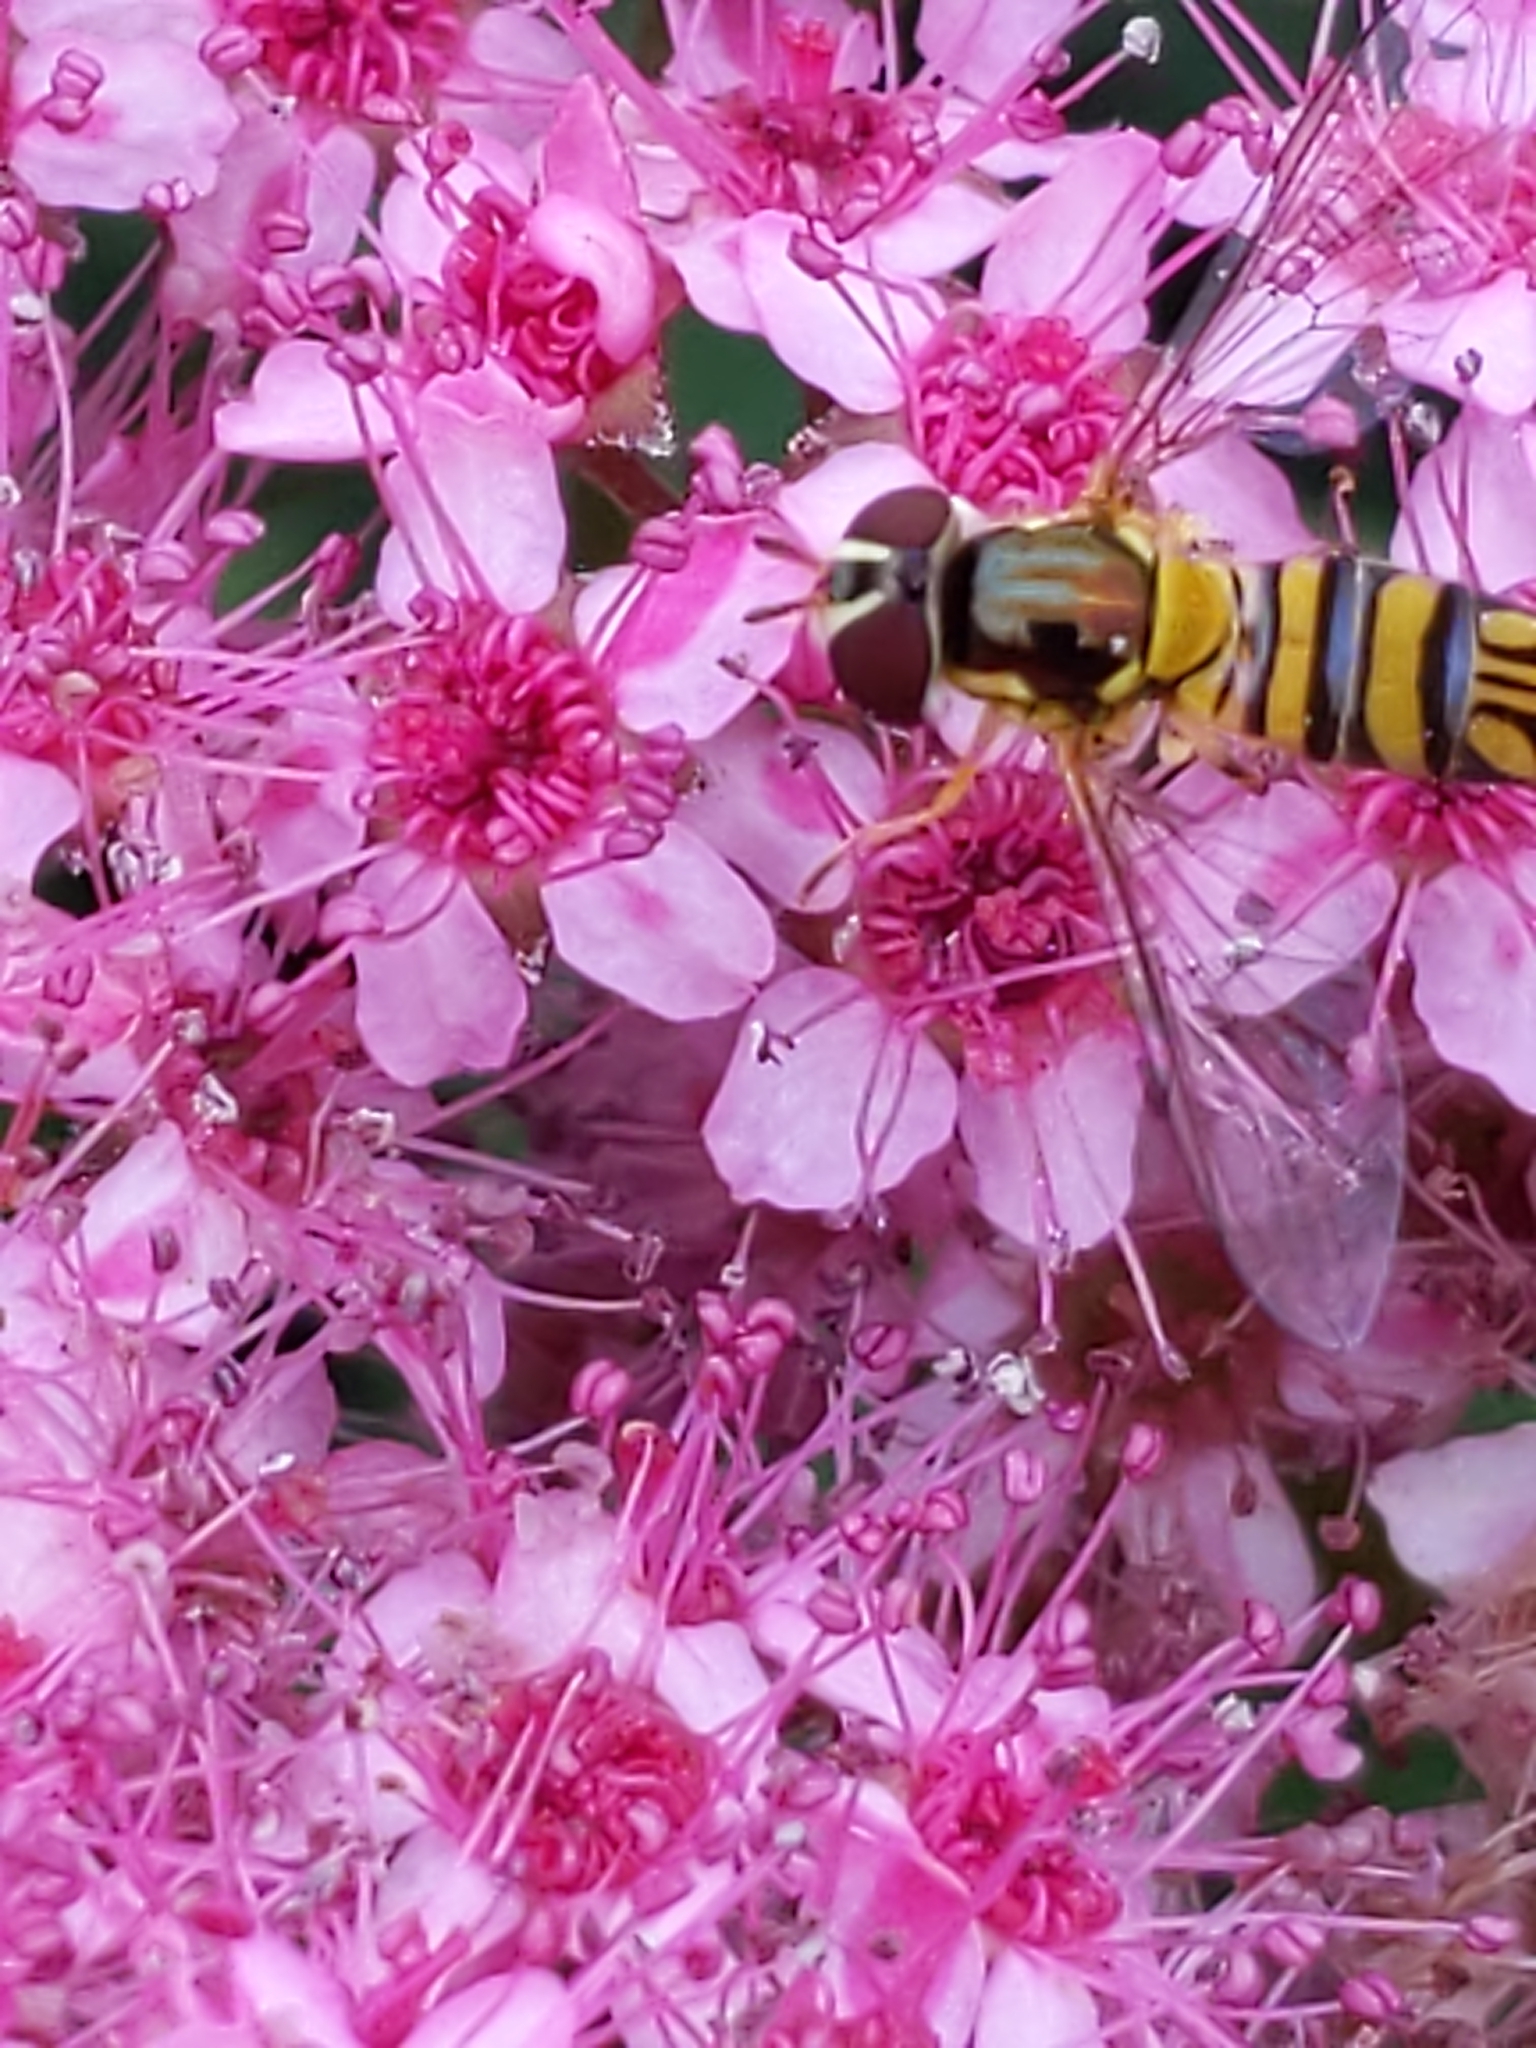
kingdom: Animalia
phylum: Arthropoda
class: Insecta
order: Diptera
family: Syrphidae
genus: Allograpta
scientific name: Allograpta obliqua
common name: Common oblique syrphid
